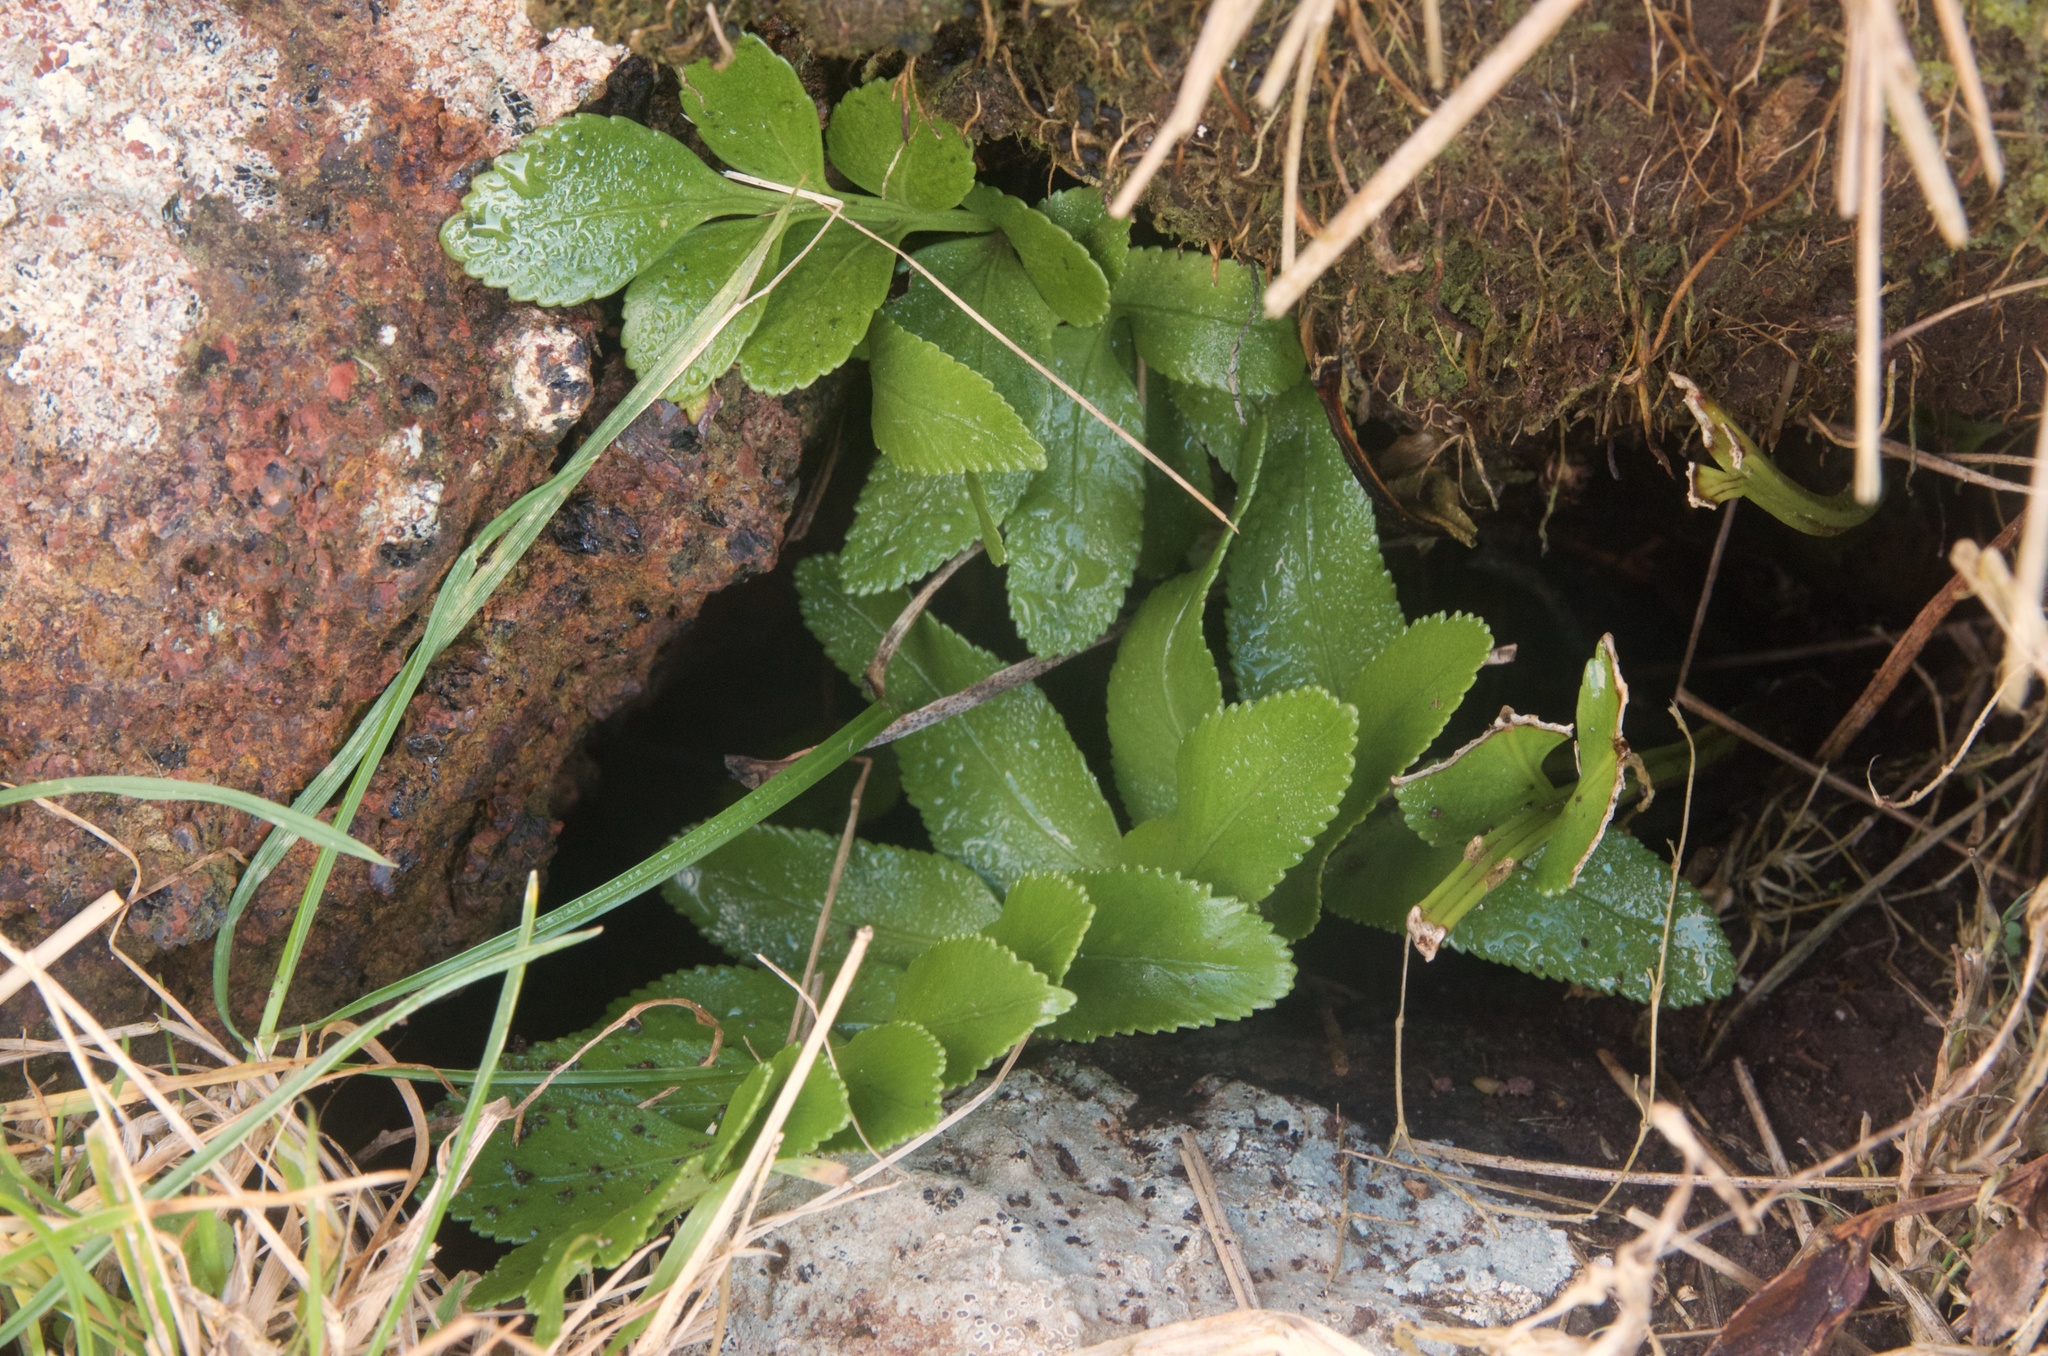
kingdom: Plantae
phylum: Tracheophyta
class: Polypodiopsida
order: Polypodiales
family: Aspleniaceae
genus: Asplenium
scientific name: Asplenium obtusatum
